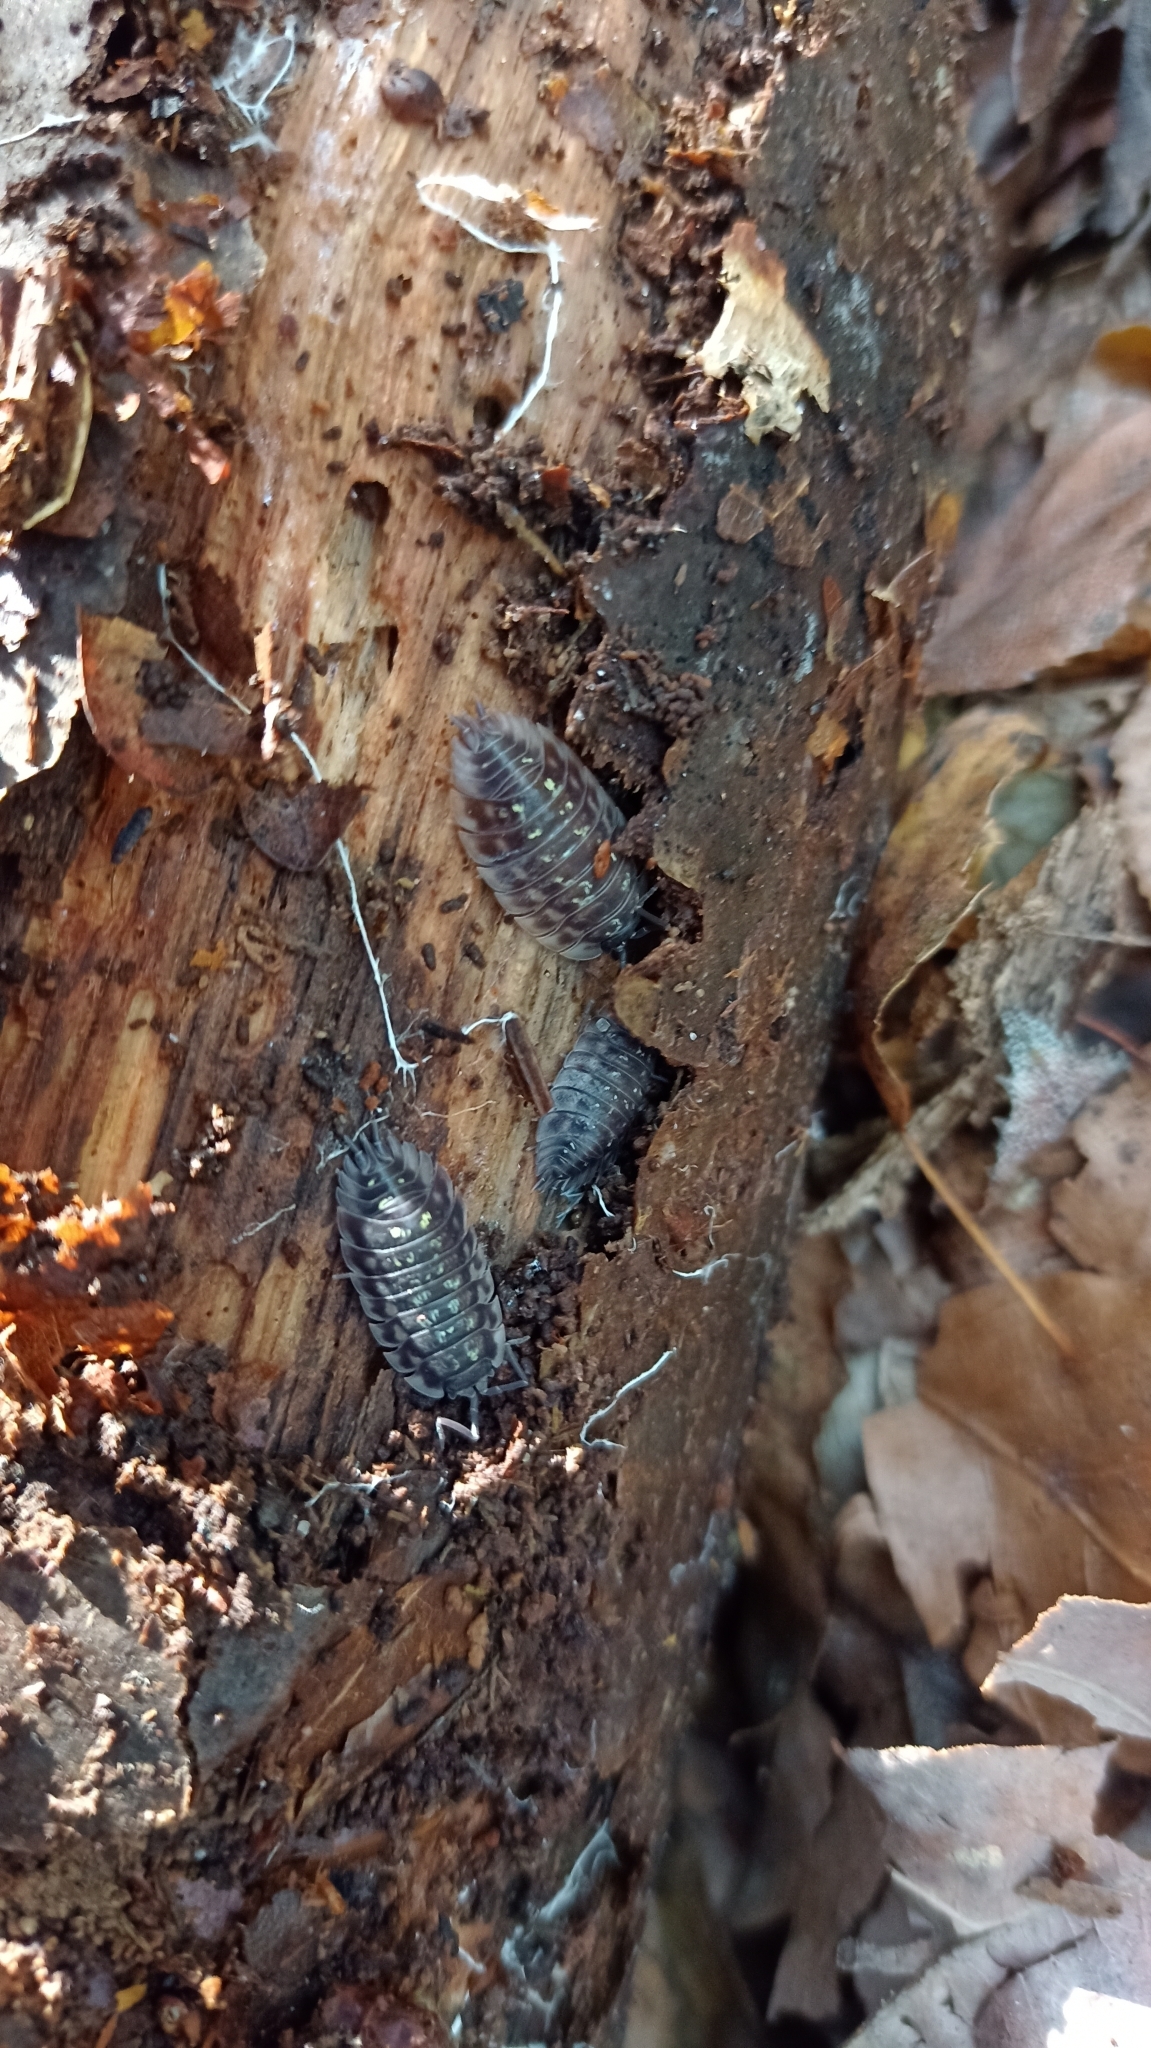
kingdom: Animalia
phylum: Arthropoda
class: Malacostraca
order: Isopoda
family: Oniscidae
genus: Oniscus
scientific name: Oniscus asellus
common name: Common shiny woodlouse
